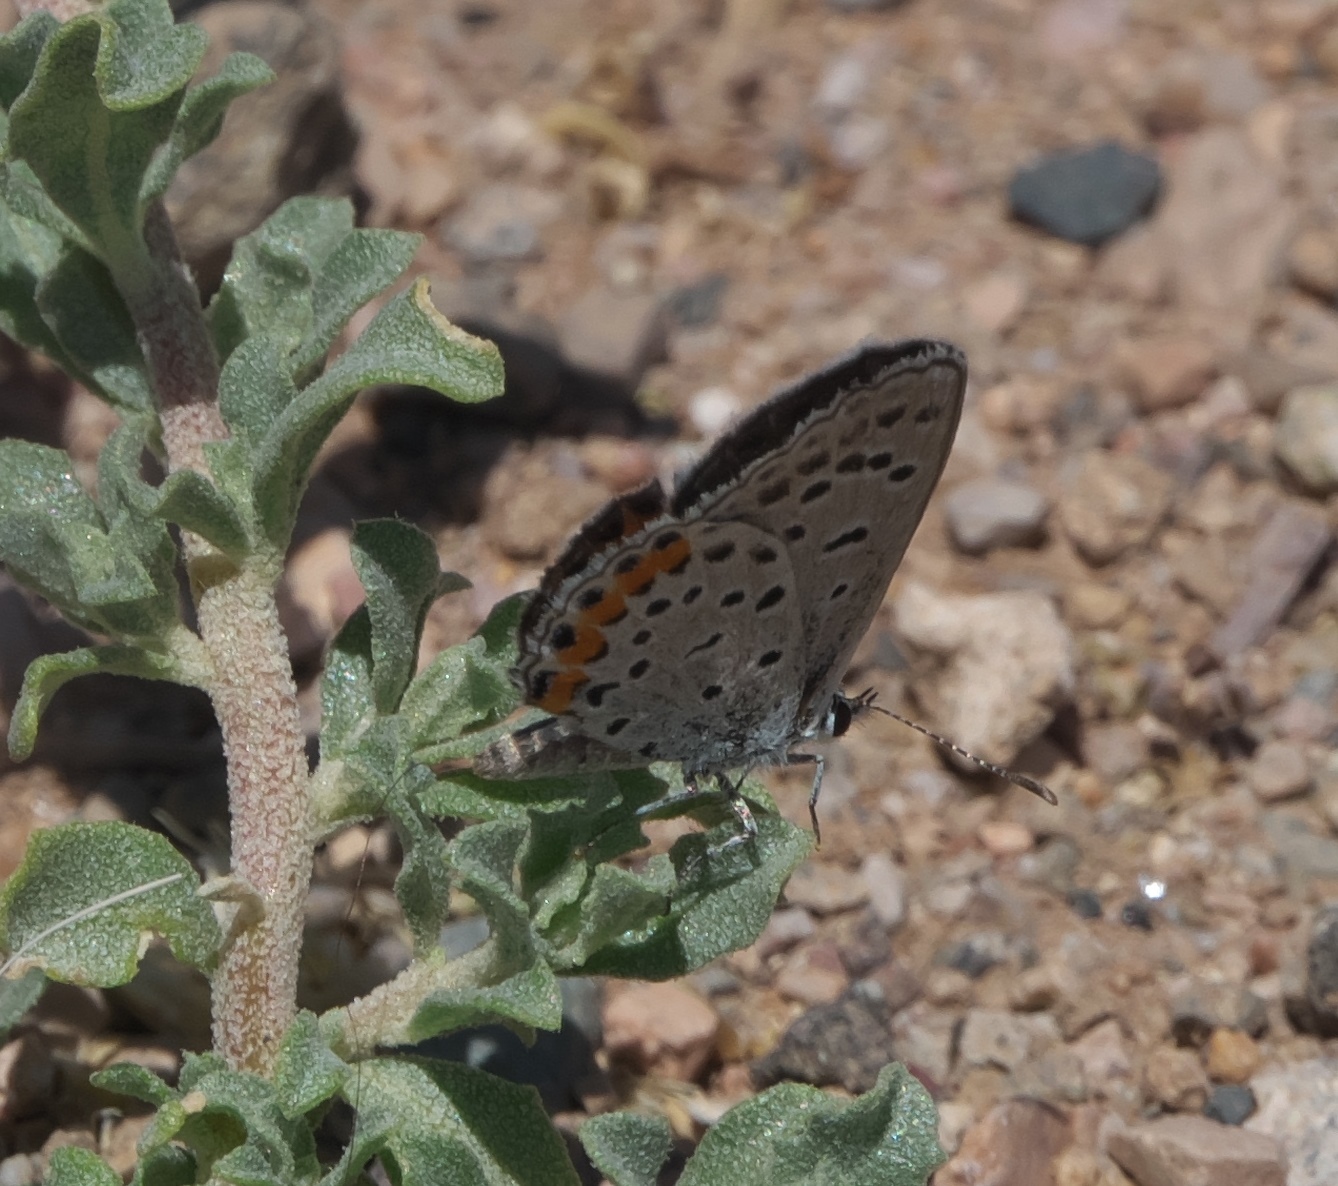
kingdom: Animalia
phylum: Arthropoda
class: Insecta
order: Lepidoptera
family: Lycaenidae
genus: Icaricia
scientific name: Icaricia lupini
